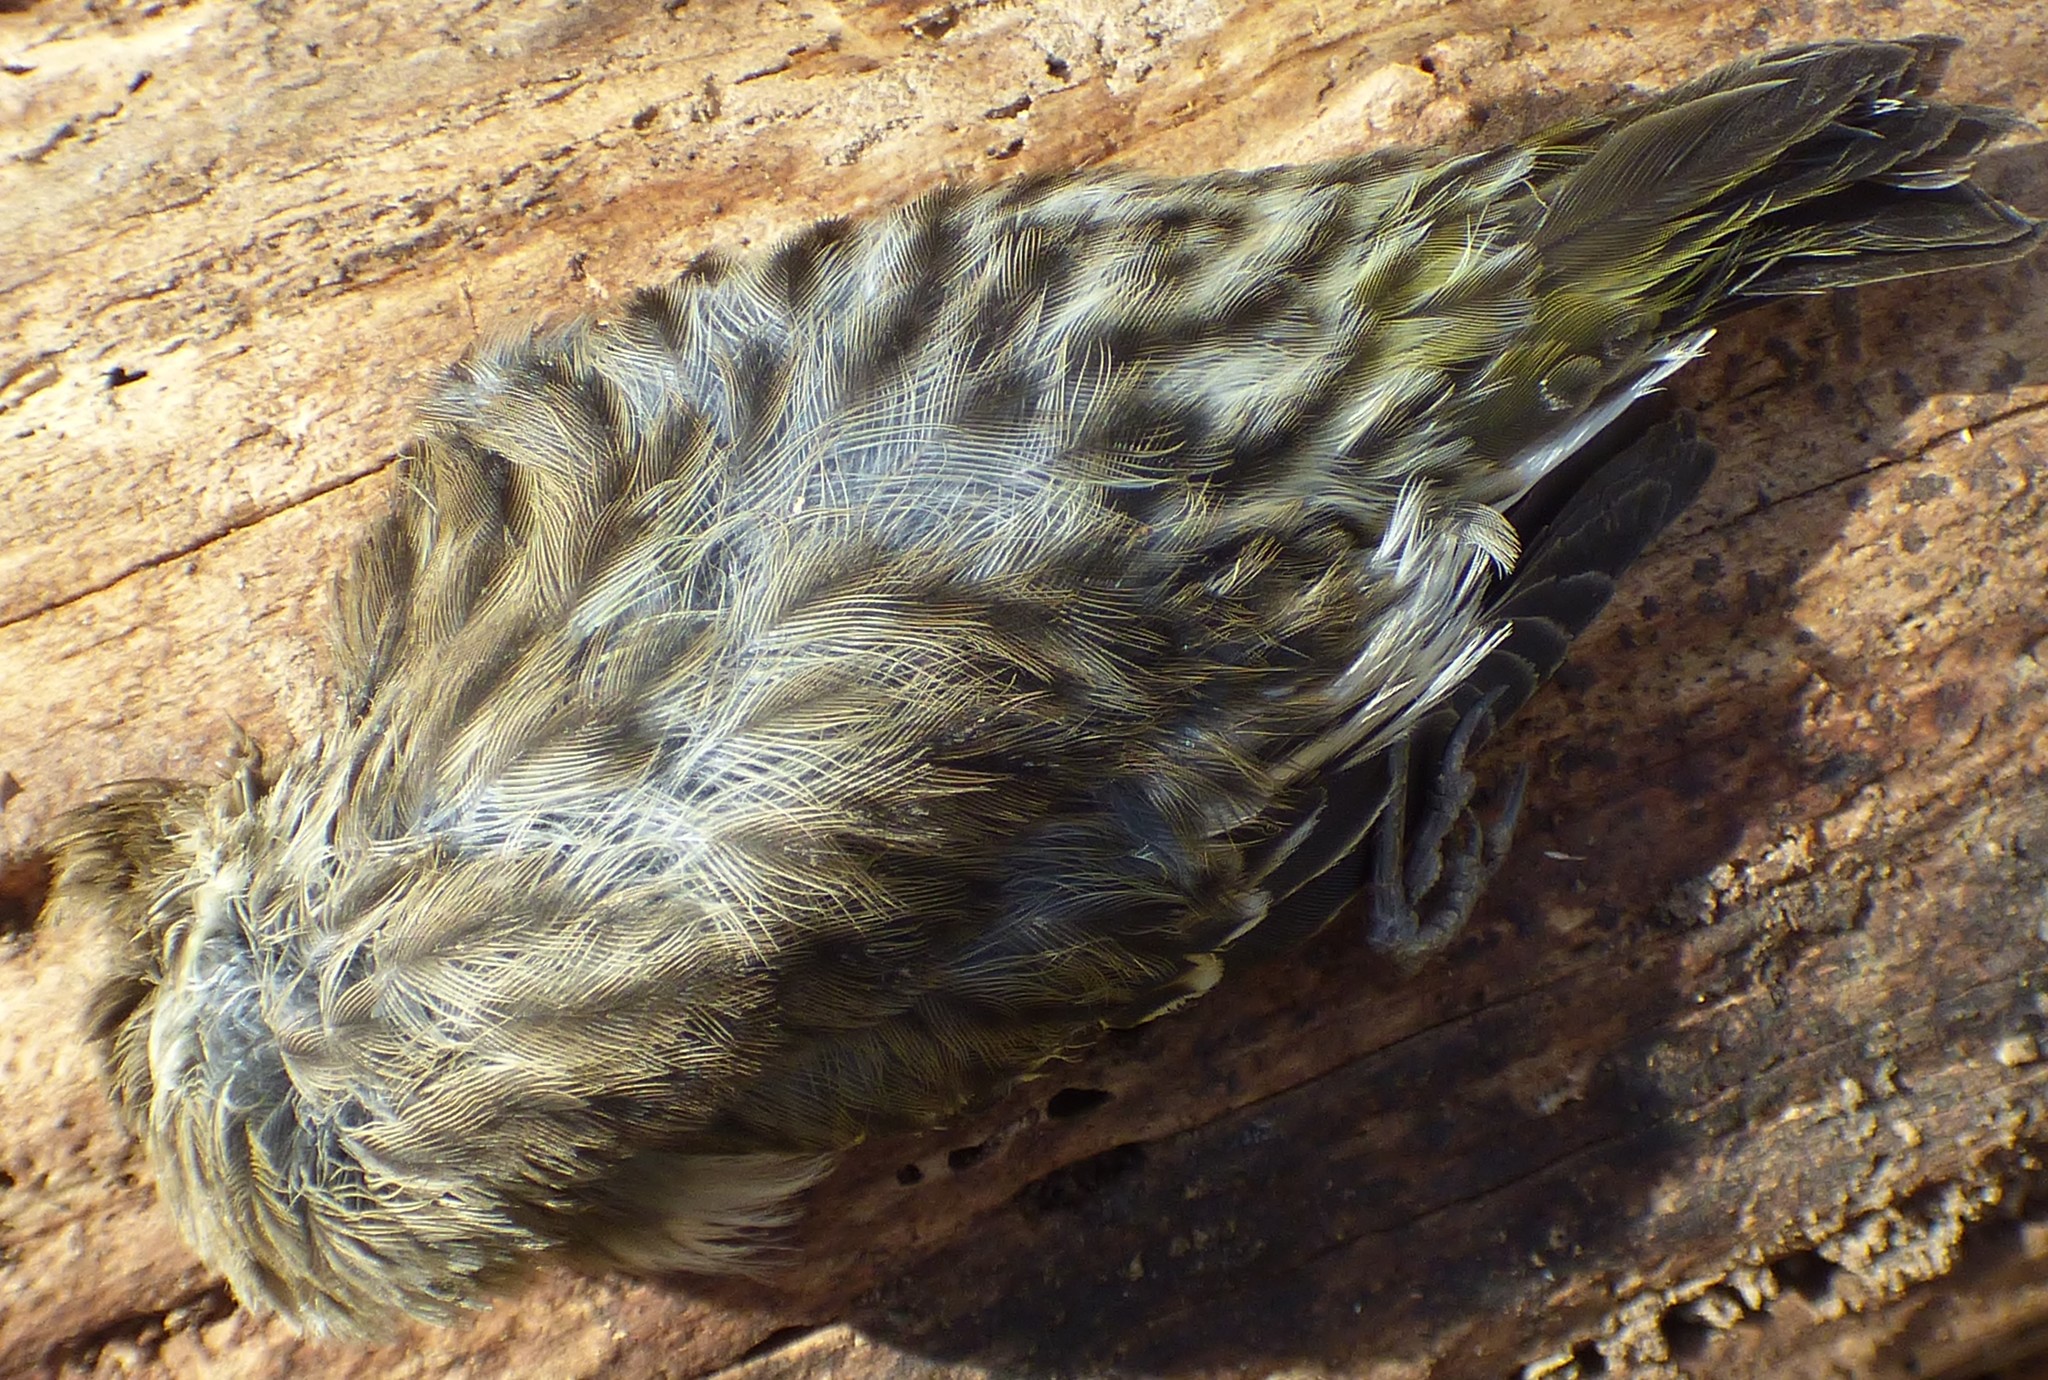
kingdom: Animalia
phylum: Chordata
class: Aves
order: Passeriformes
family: Fringillidae
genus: Spinus
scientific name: Spinus pinus
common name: Pine siskin
